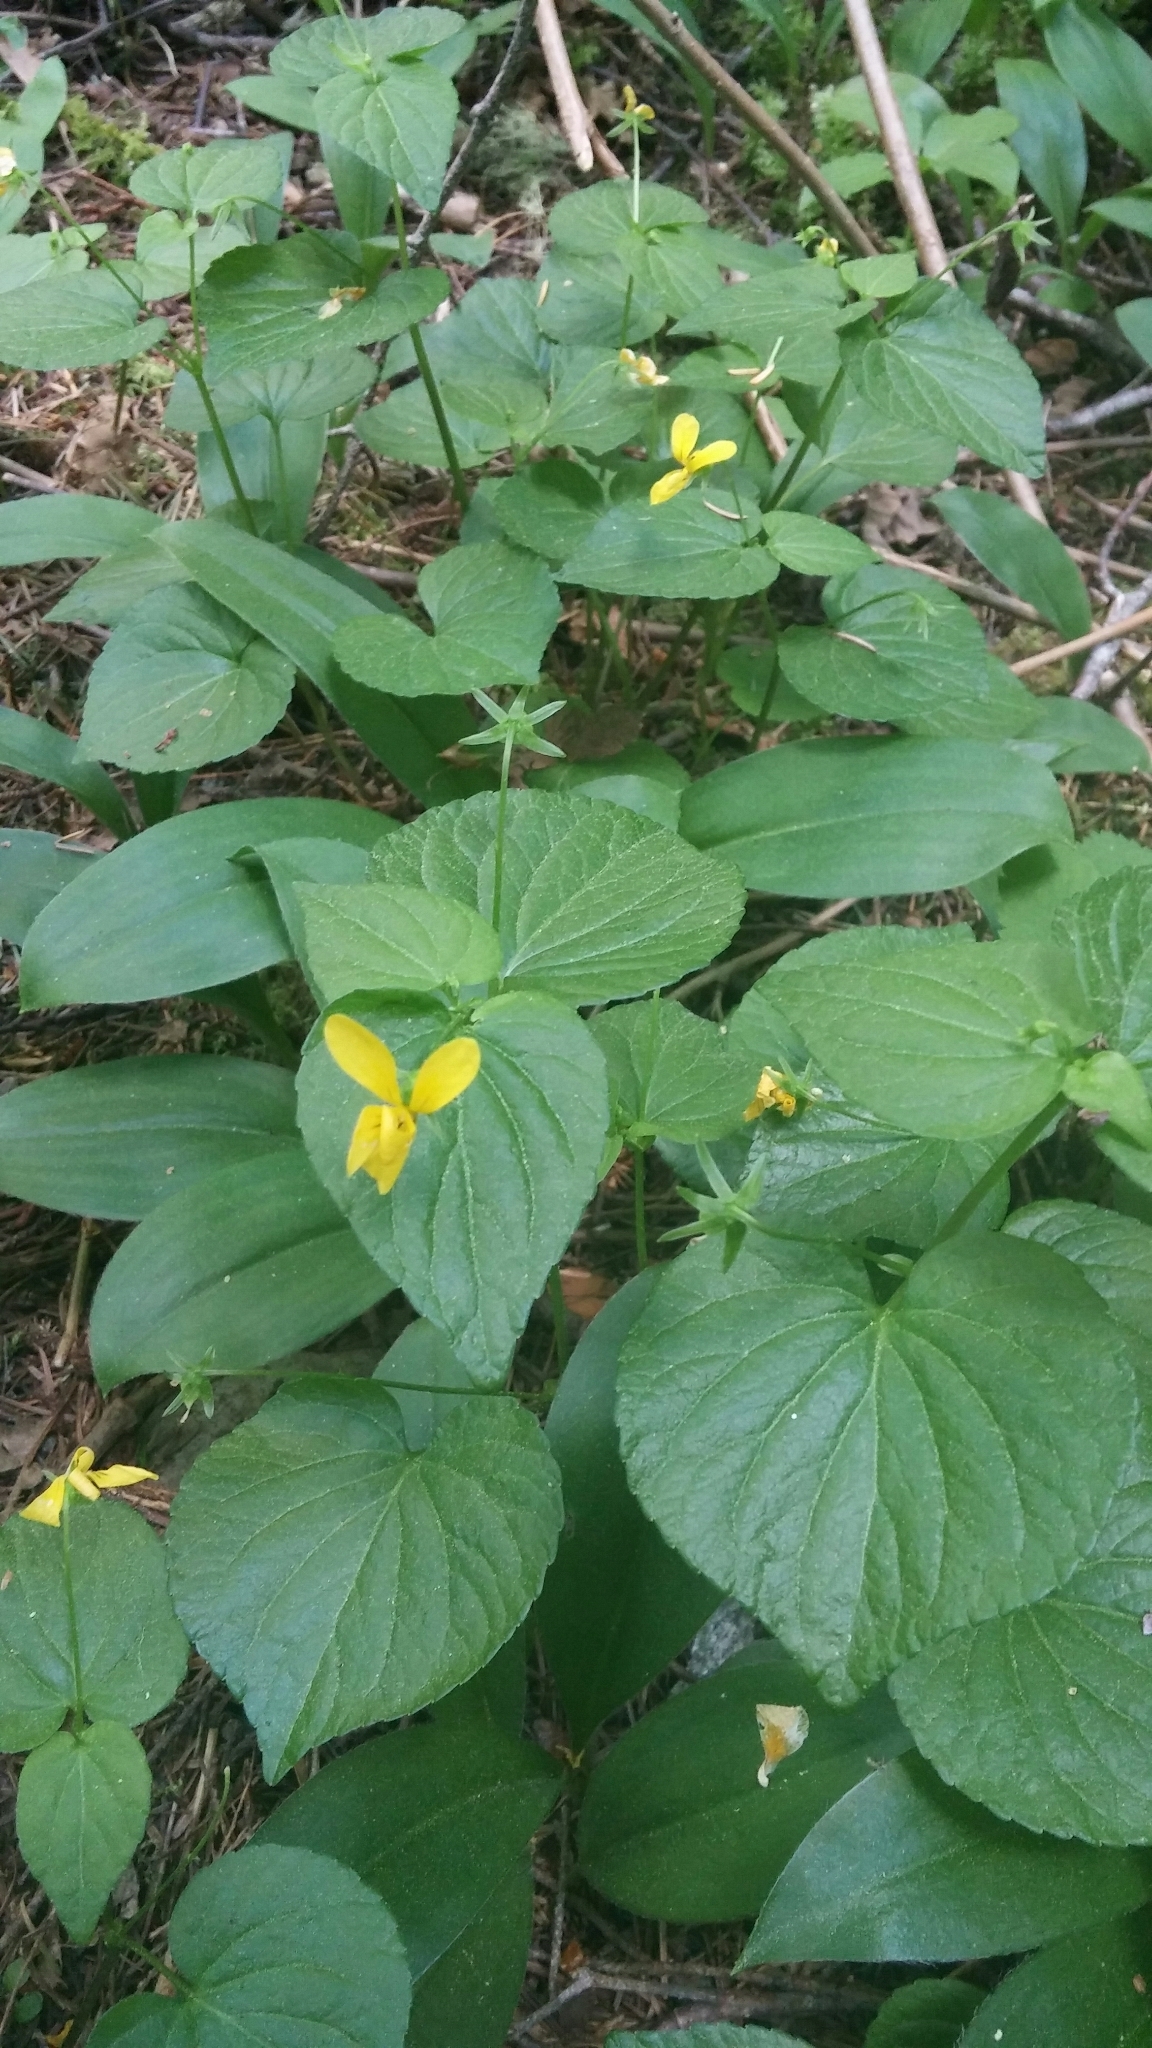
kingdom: Plantae
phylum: Tracheophyta
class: Magnoliopsida
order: Malpighiales
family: Violaceae
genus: Viola
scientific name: Viola glabella
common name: Stream violet
